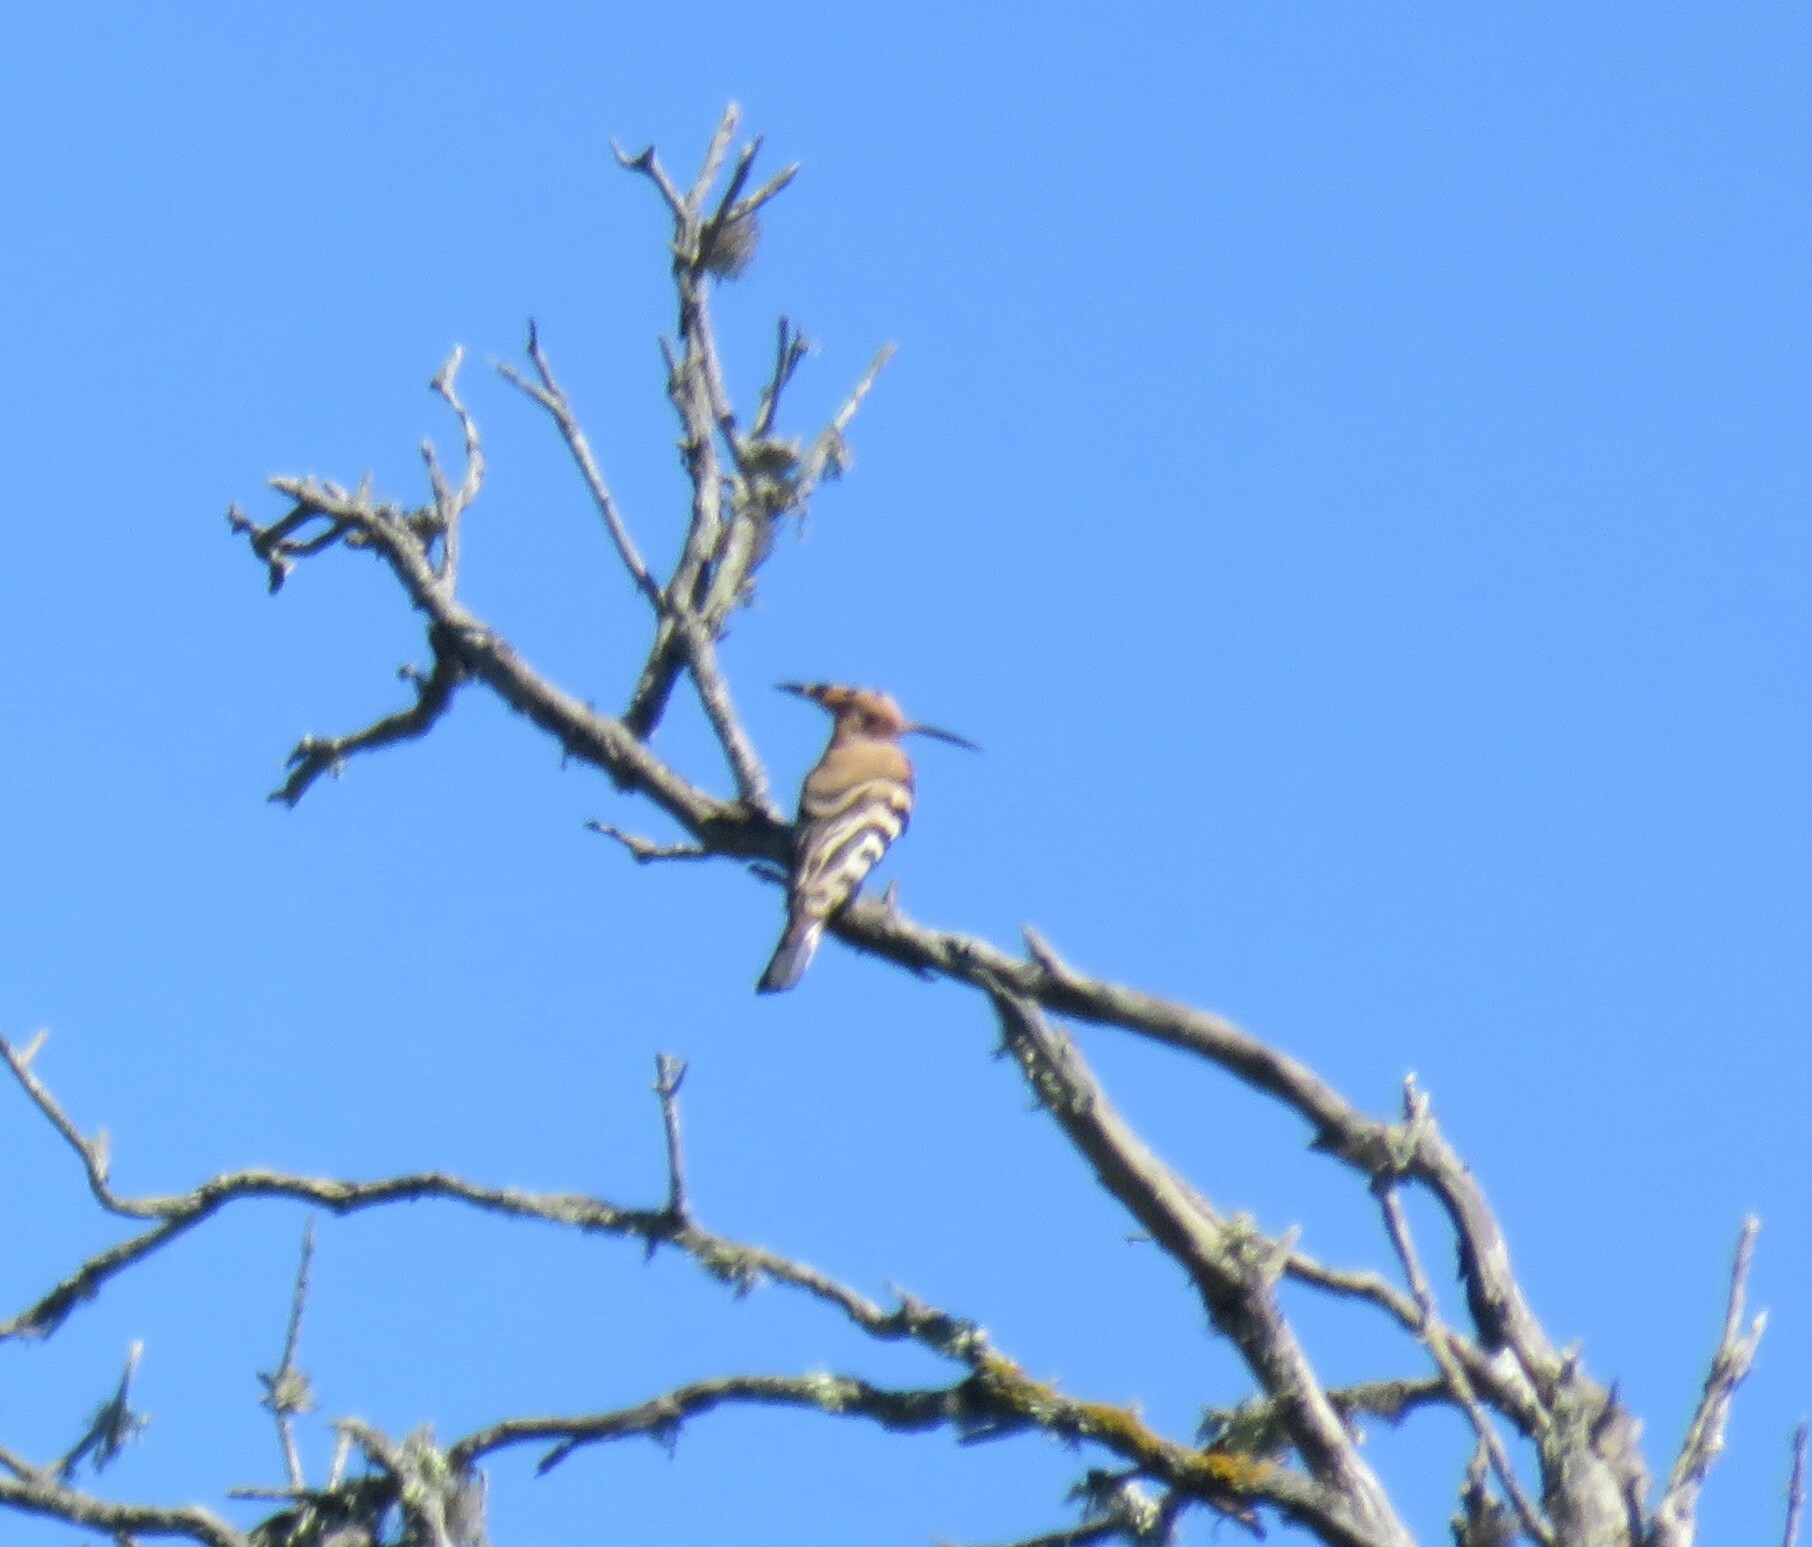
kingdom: Animalia
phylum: Chordata
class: Aves
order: Bucerotiformes
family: Upupidae
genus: Upupa
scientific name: Upupa epops
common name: Eurasian hoopoe
